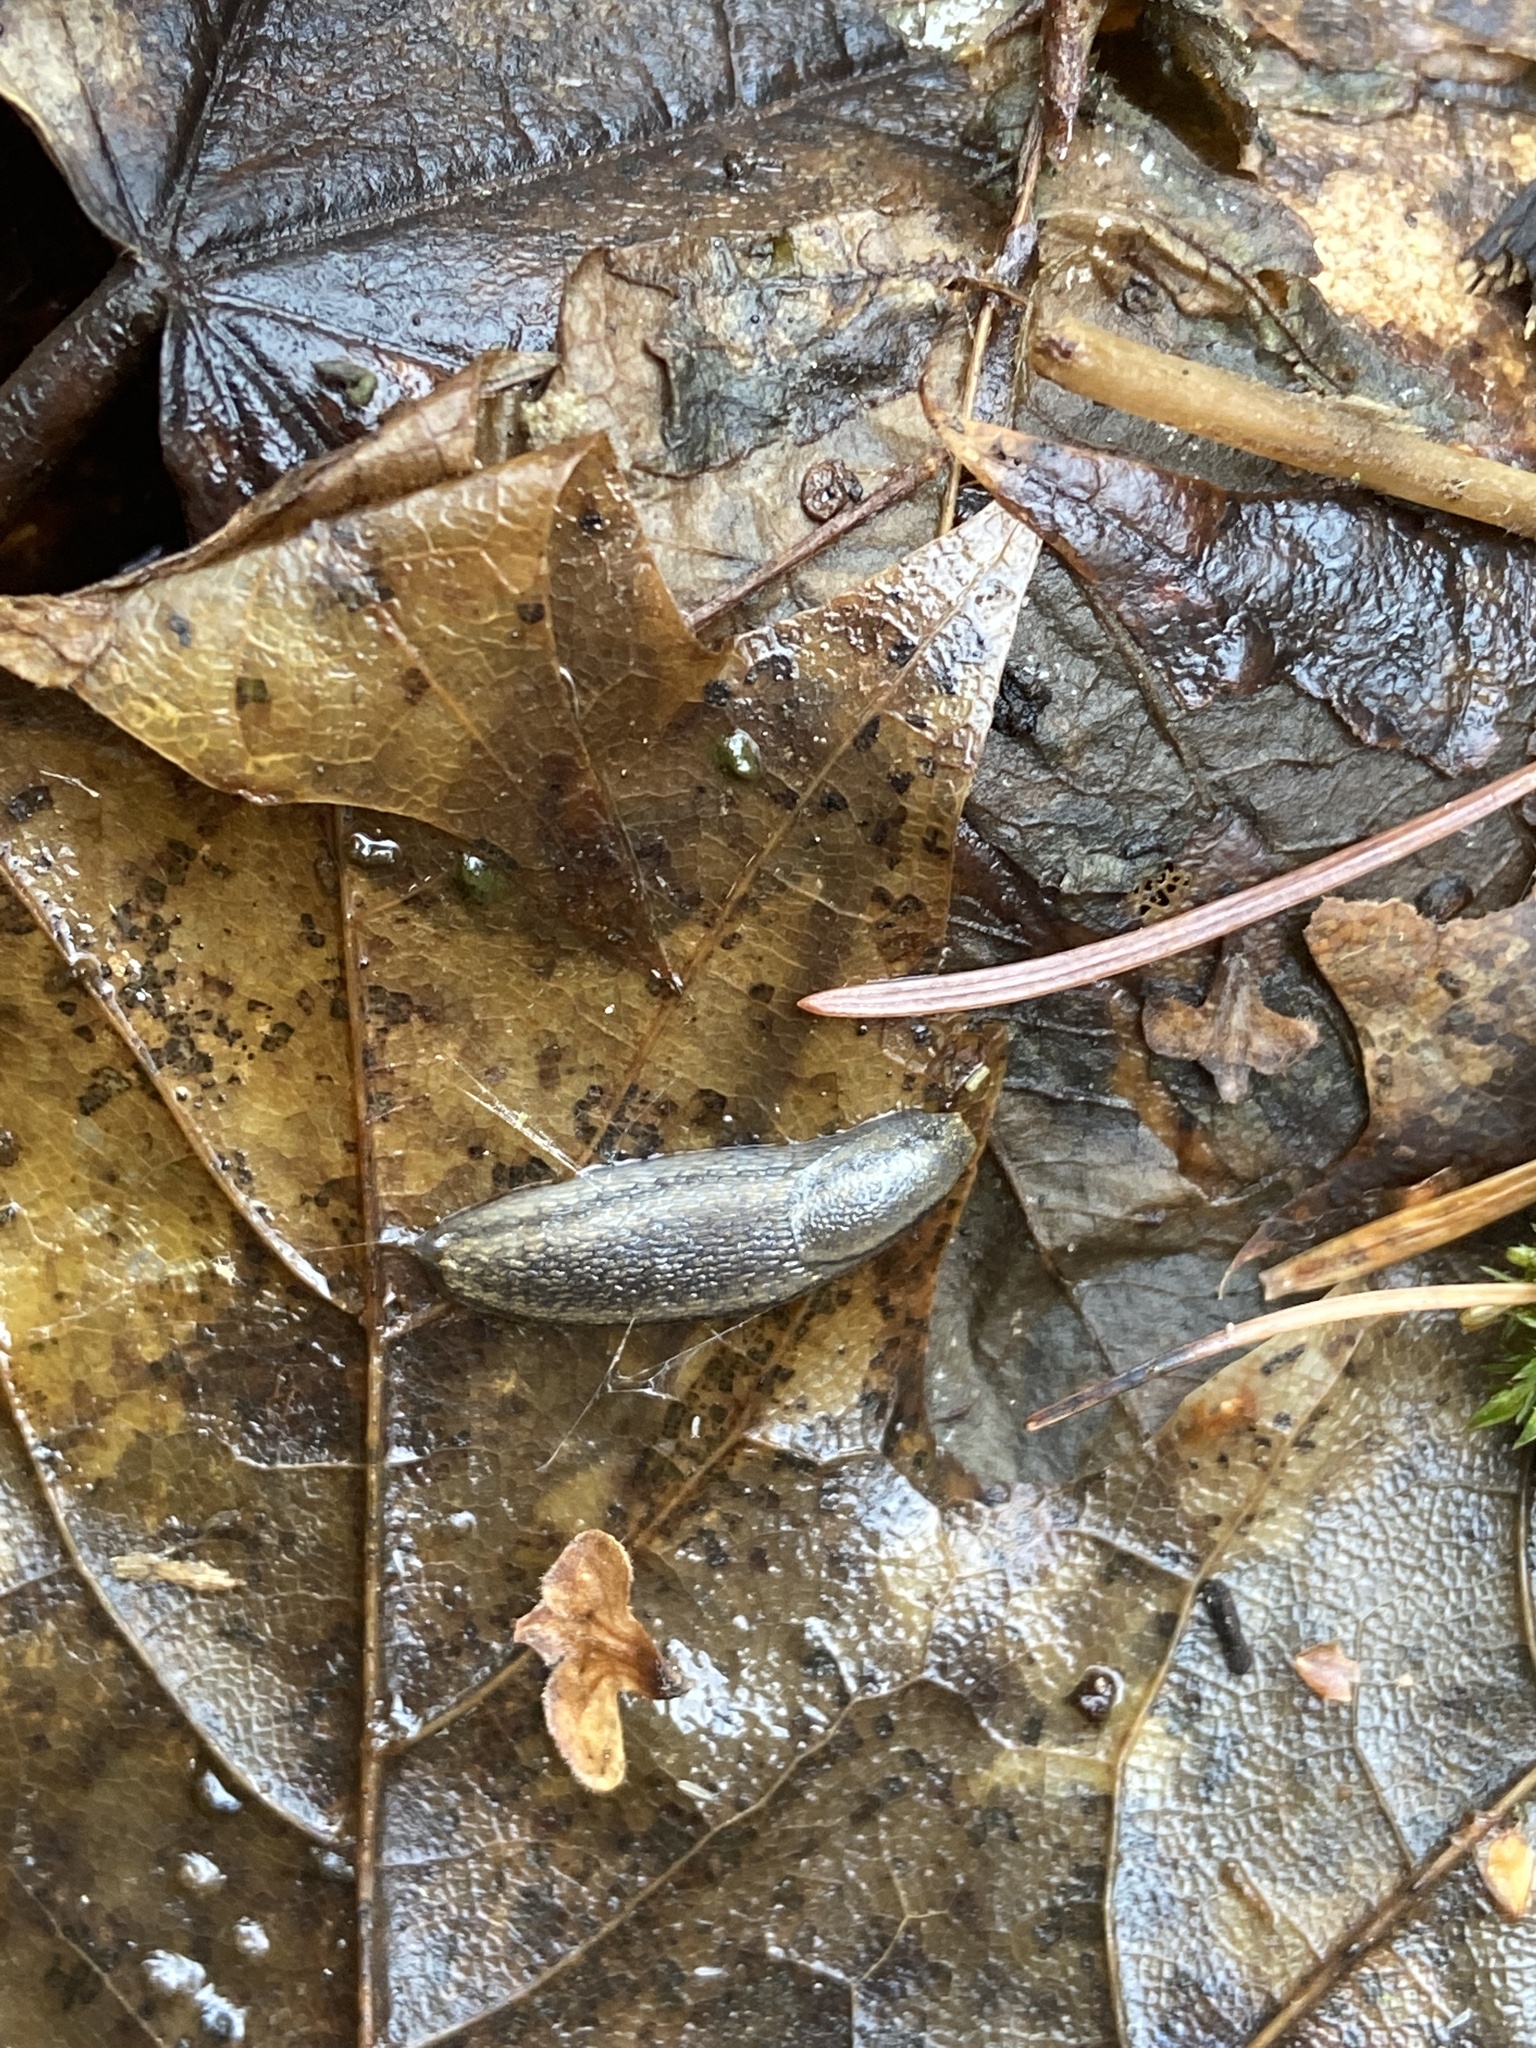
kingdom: Animalia
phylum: Mollusca
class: Gastropoda
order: Stylommatophora
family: Arionidae
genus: Arion
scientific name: Arion distinctus
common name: Darkface arion
